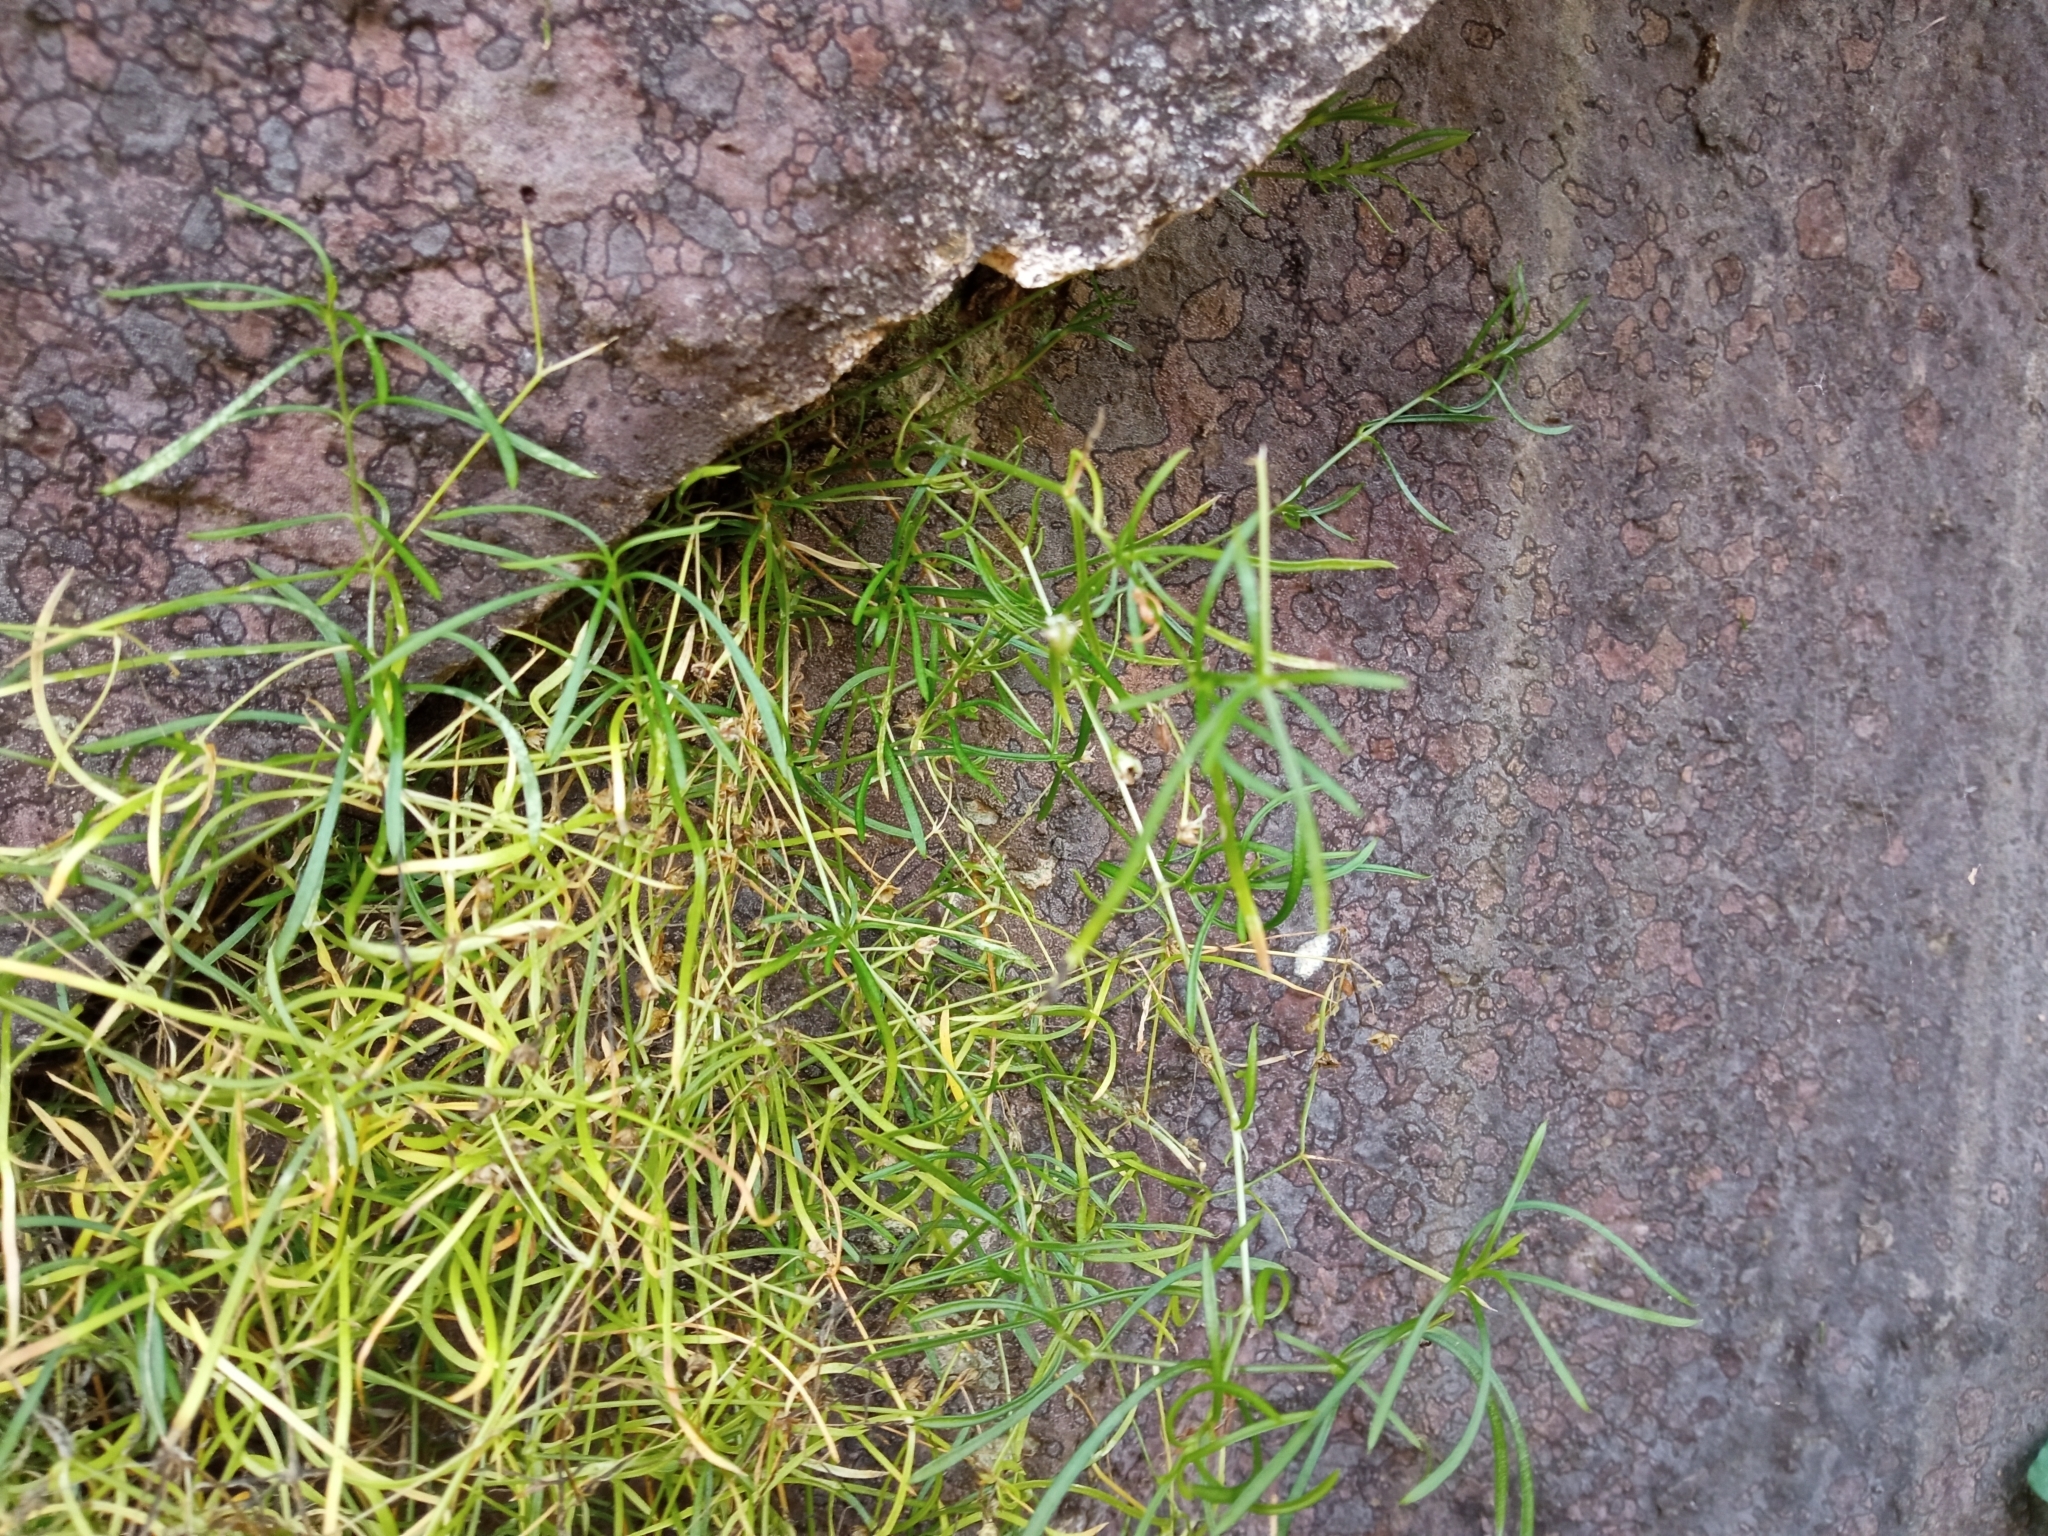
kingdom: Plantae
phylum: Tracheophyta
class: Magnoliopsida
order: Caryophyllales
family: Caryophyllaceae
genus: Moehringia
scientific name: Moehringia muscosa
